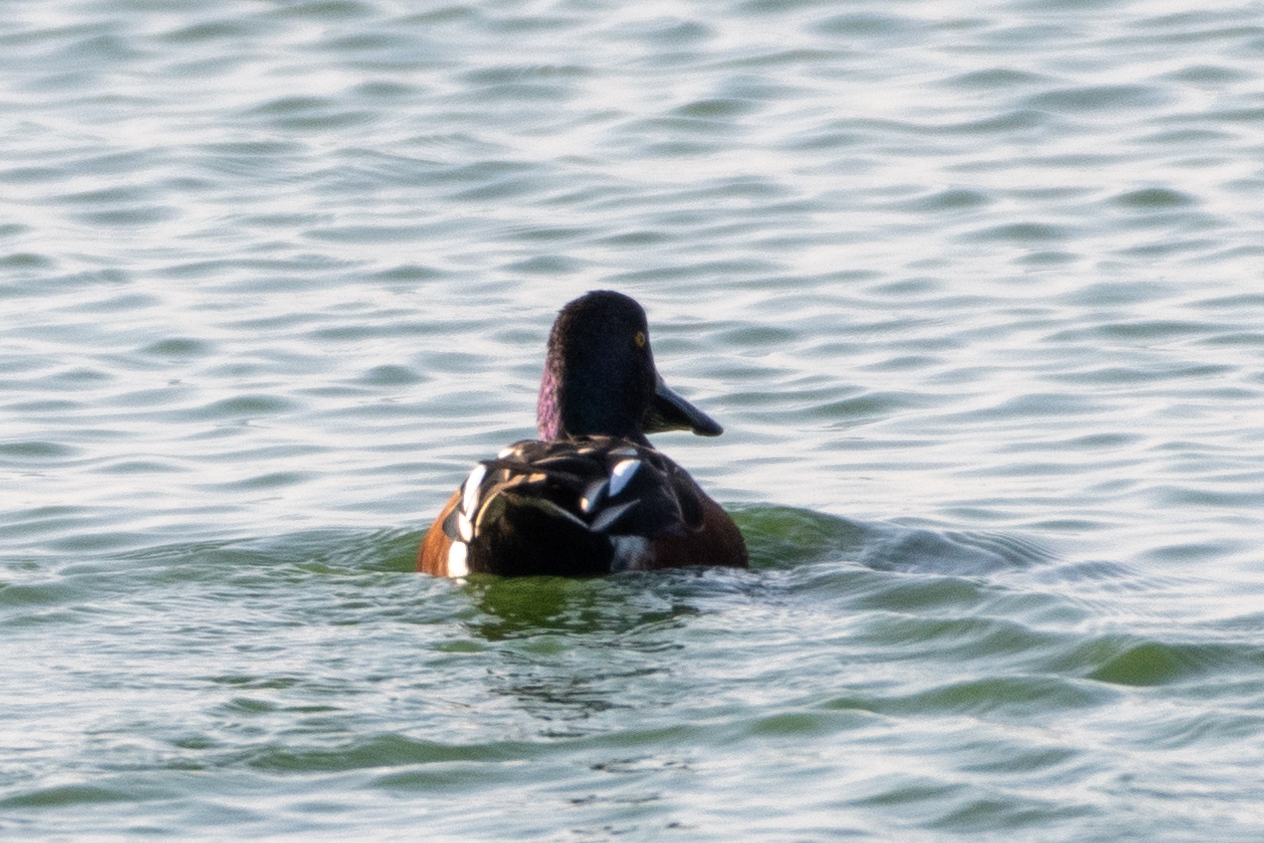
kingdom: Animalia
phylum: Chordata
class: Aves
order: Anseriformes
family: Anatidae
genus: Spatula
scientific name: Spatula clypeata
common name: Northern shoveler
